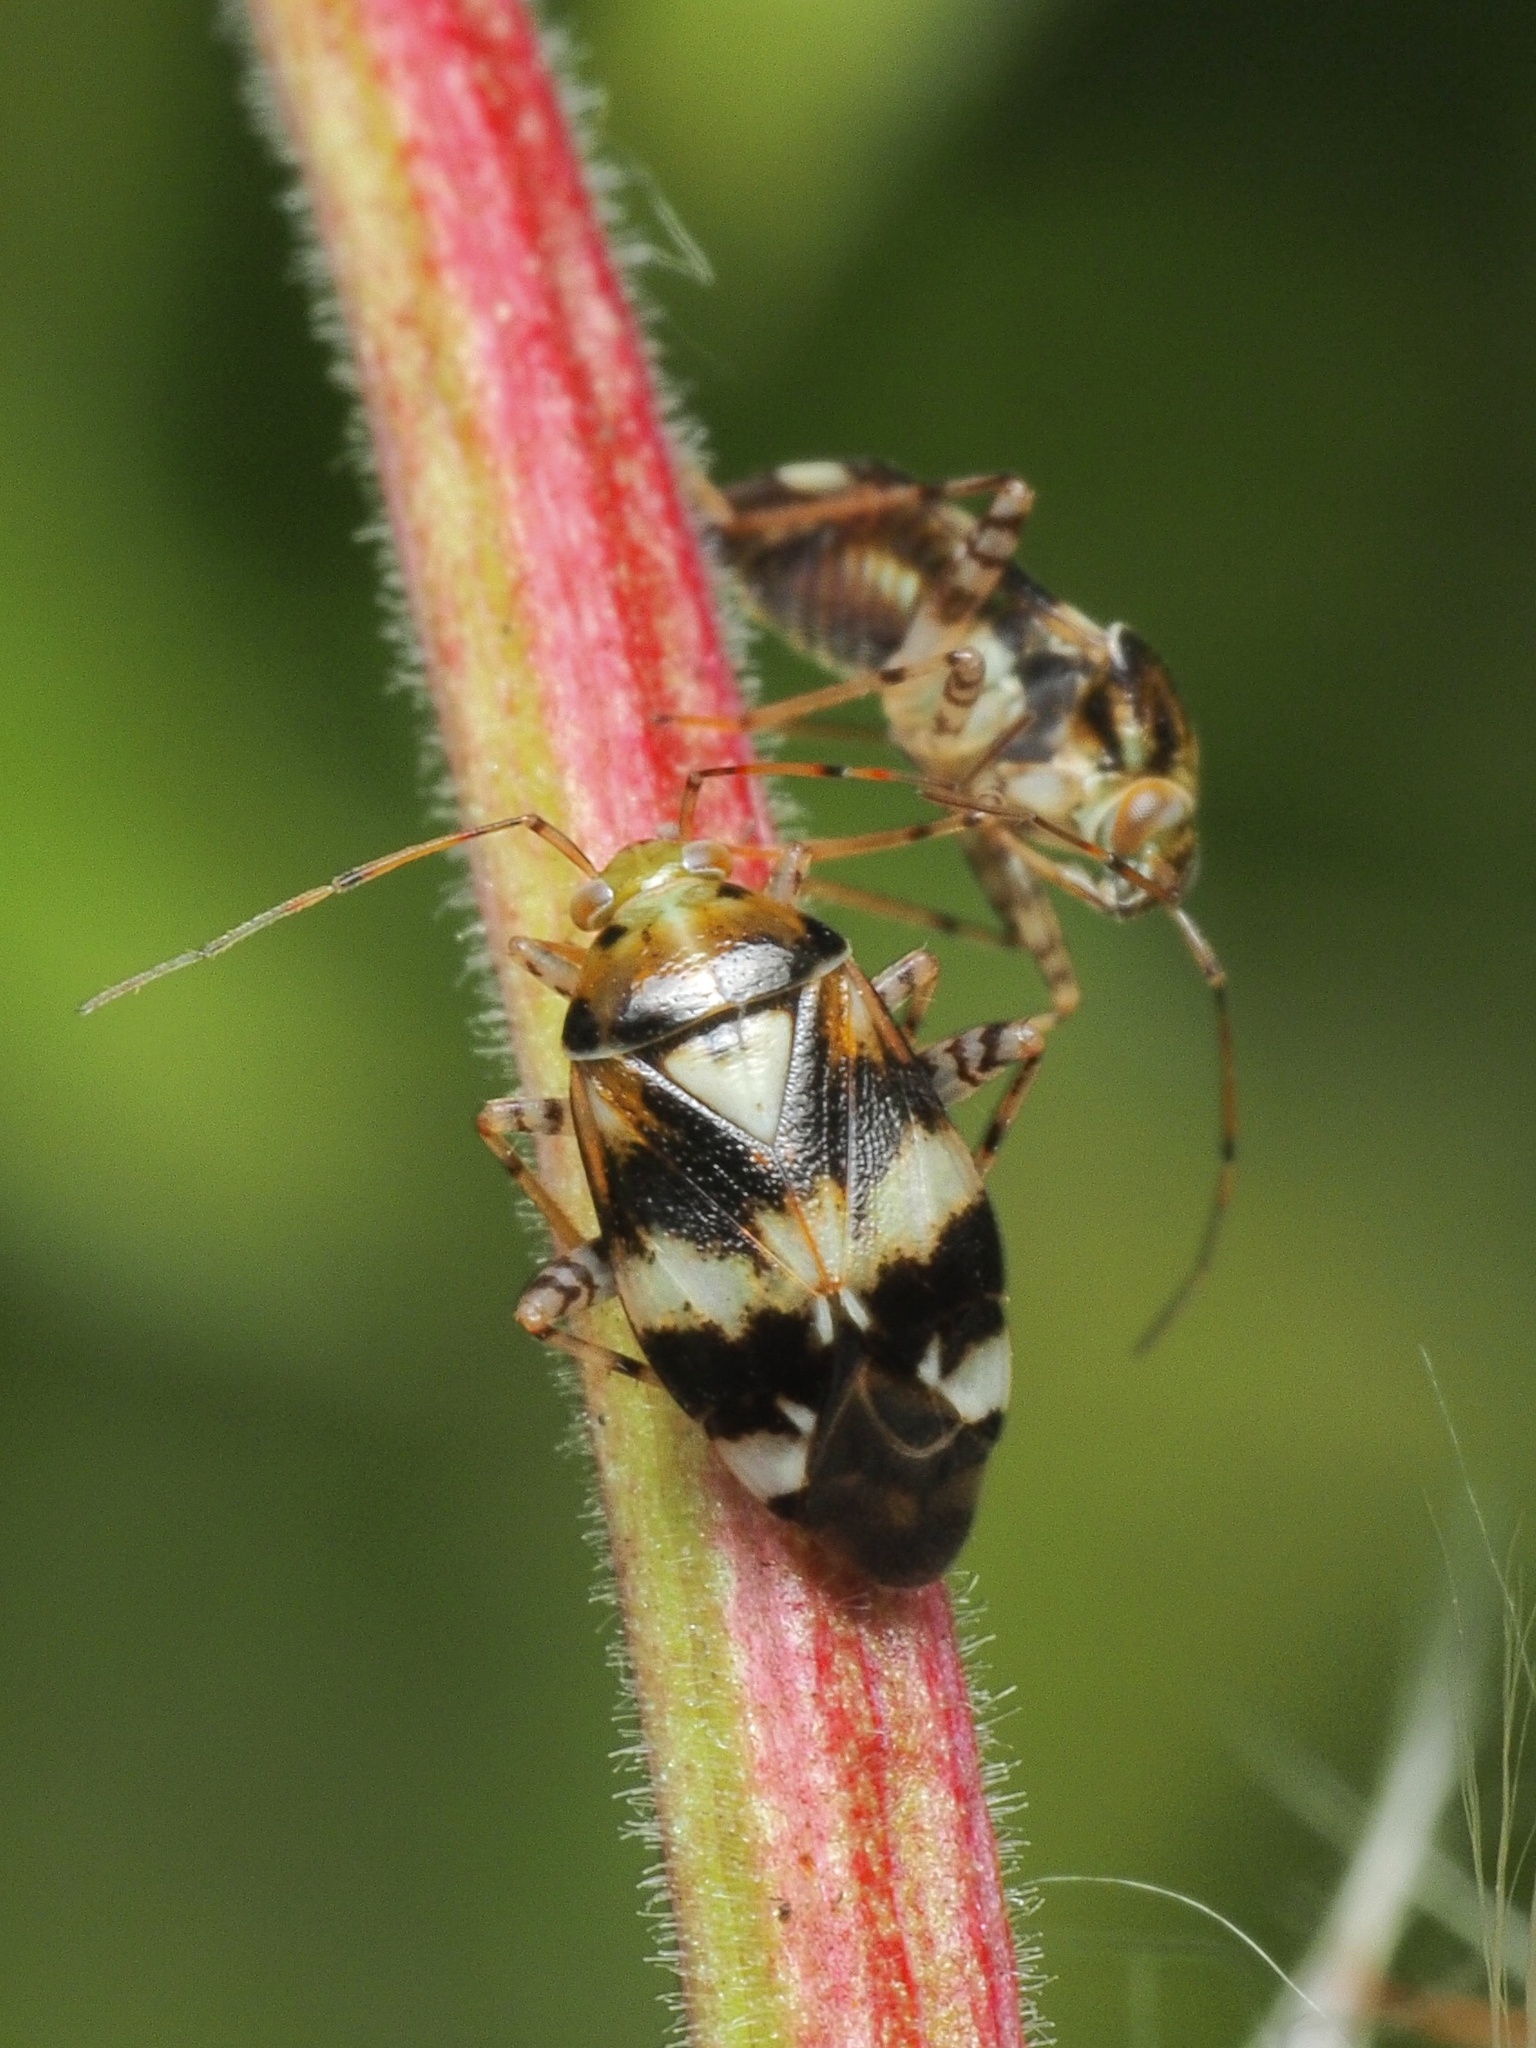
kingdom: Animalia
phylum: Arthropoda
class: Insecta
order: Hemiptera
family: Miridae
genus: Liocoris
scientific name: Liocoris tripustulatus
